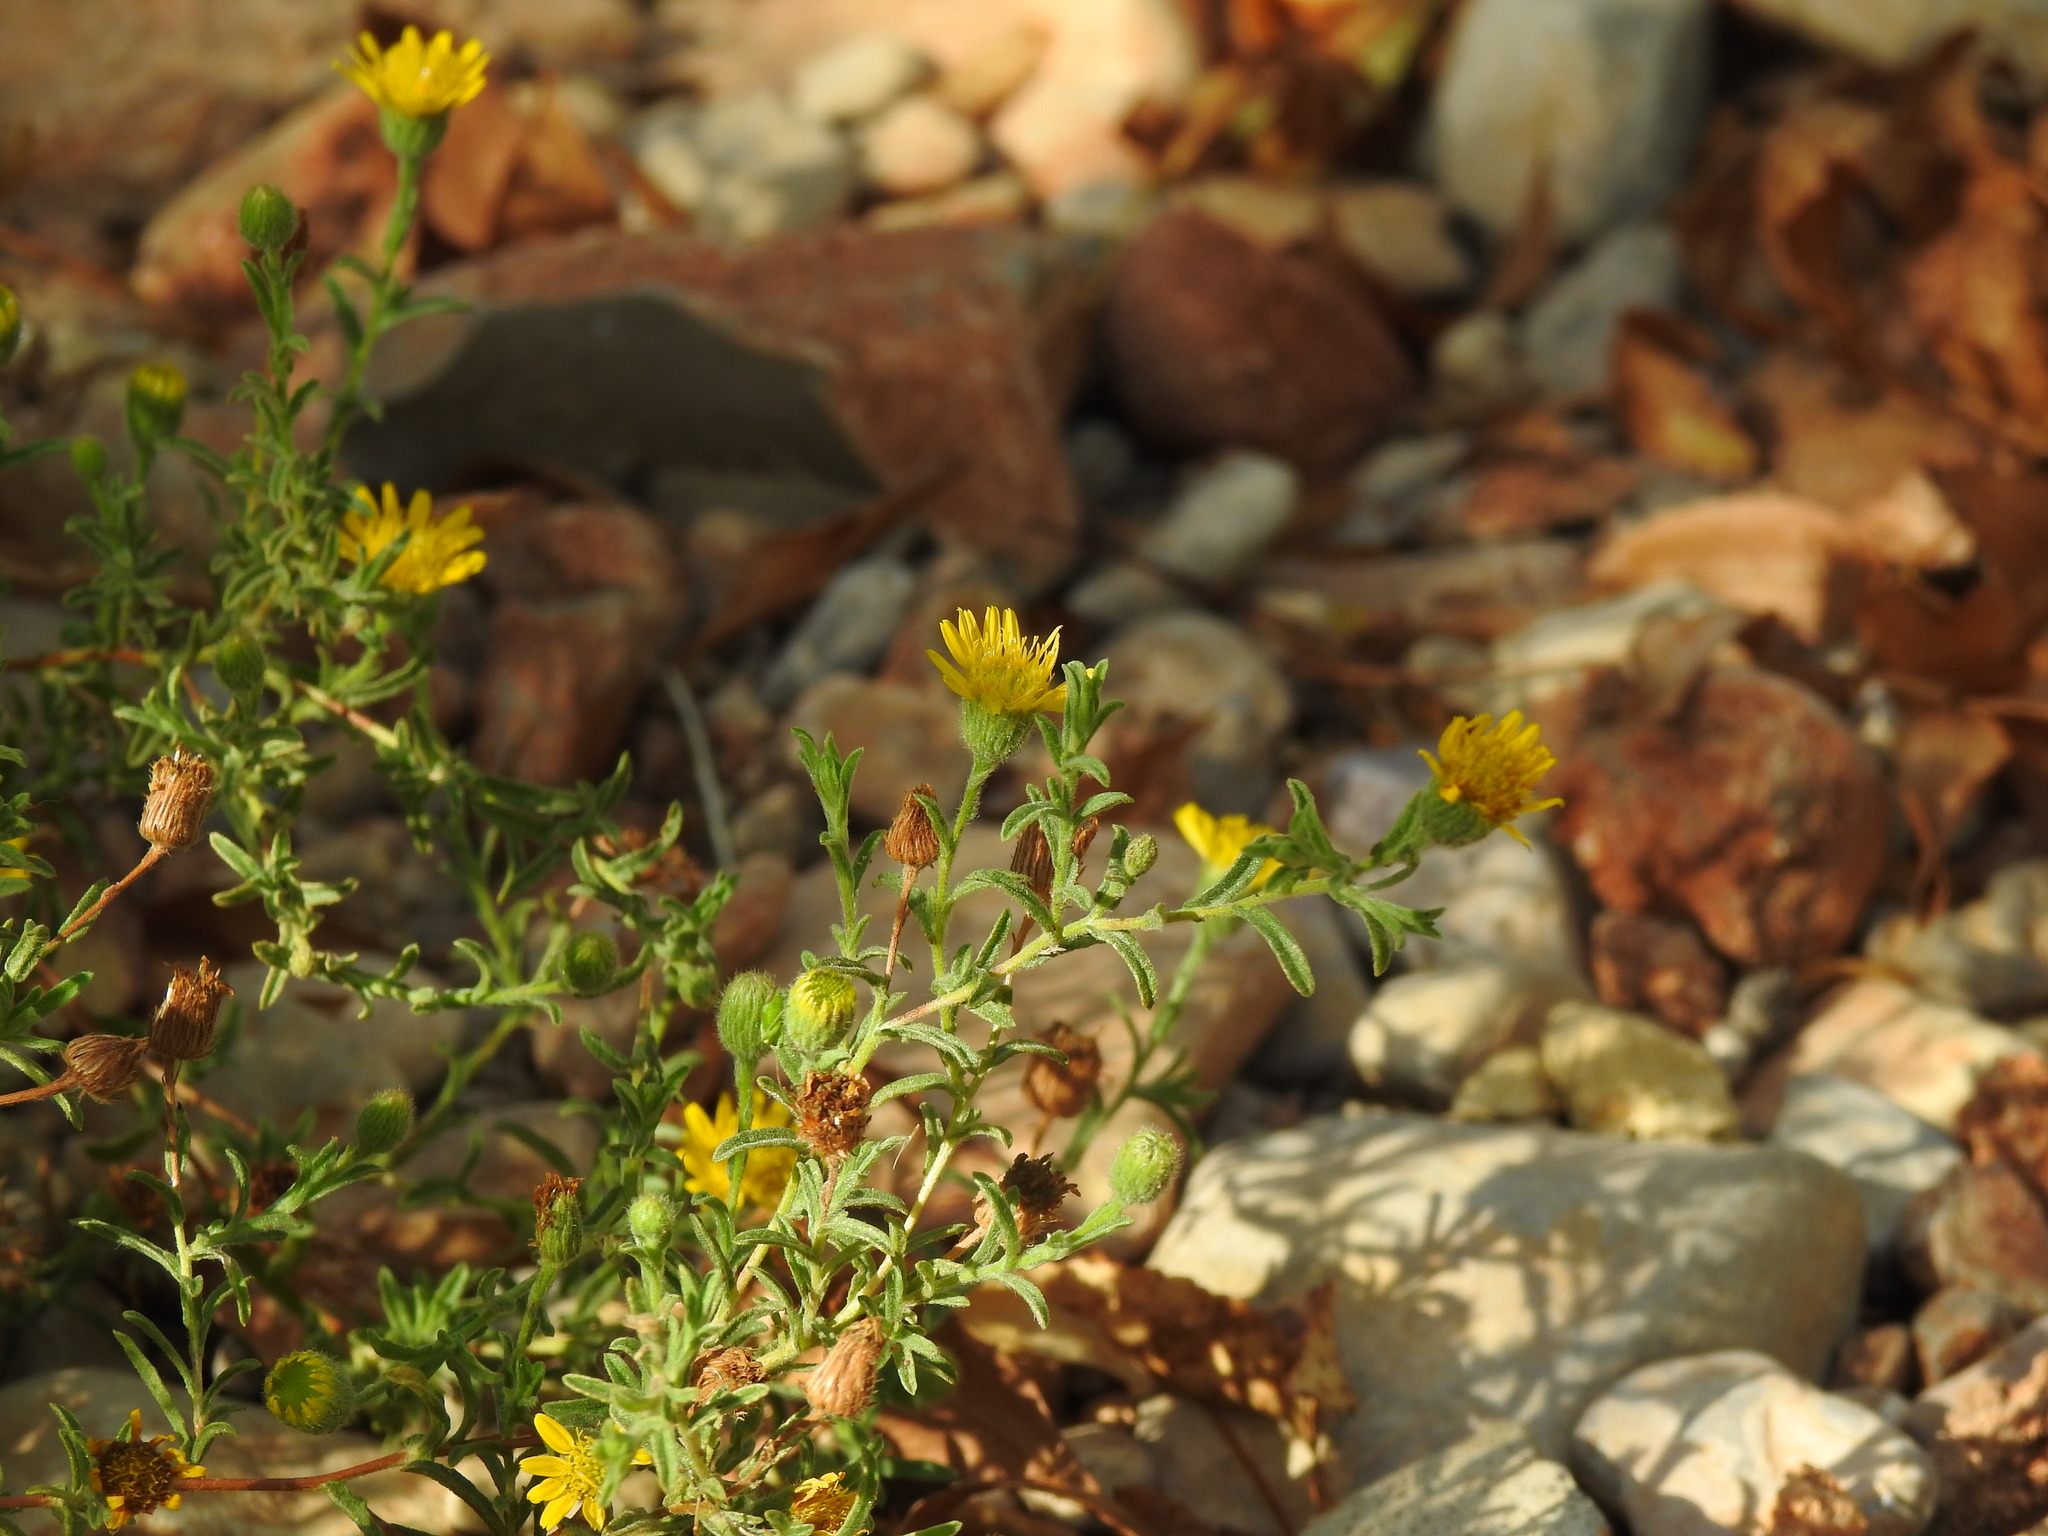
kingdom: Plantae
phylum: Tracheophyta
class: Magnoliopsida
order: Asterales
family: Asteraceae
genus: Pulicaria
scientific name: Pulicaria paludosa
